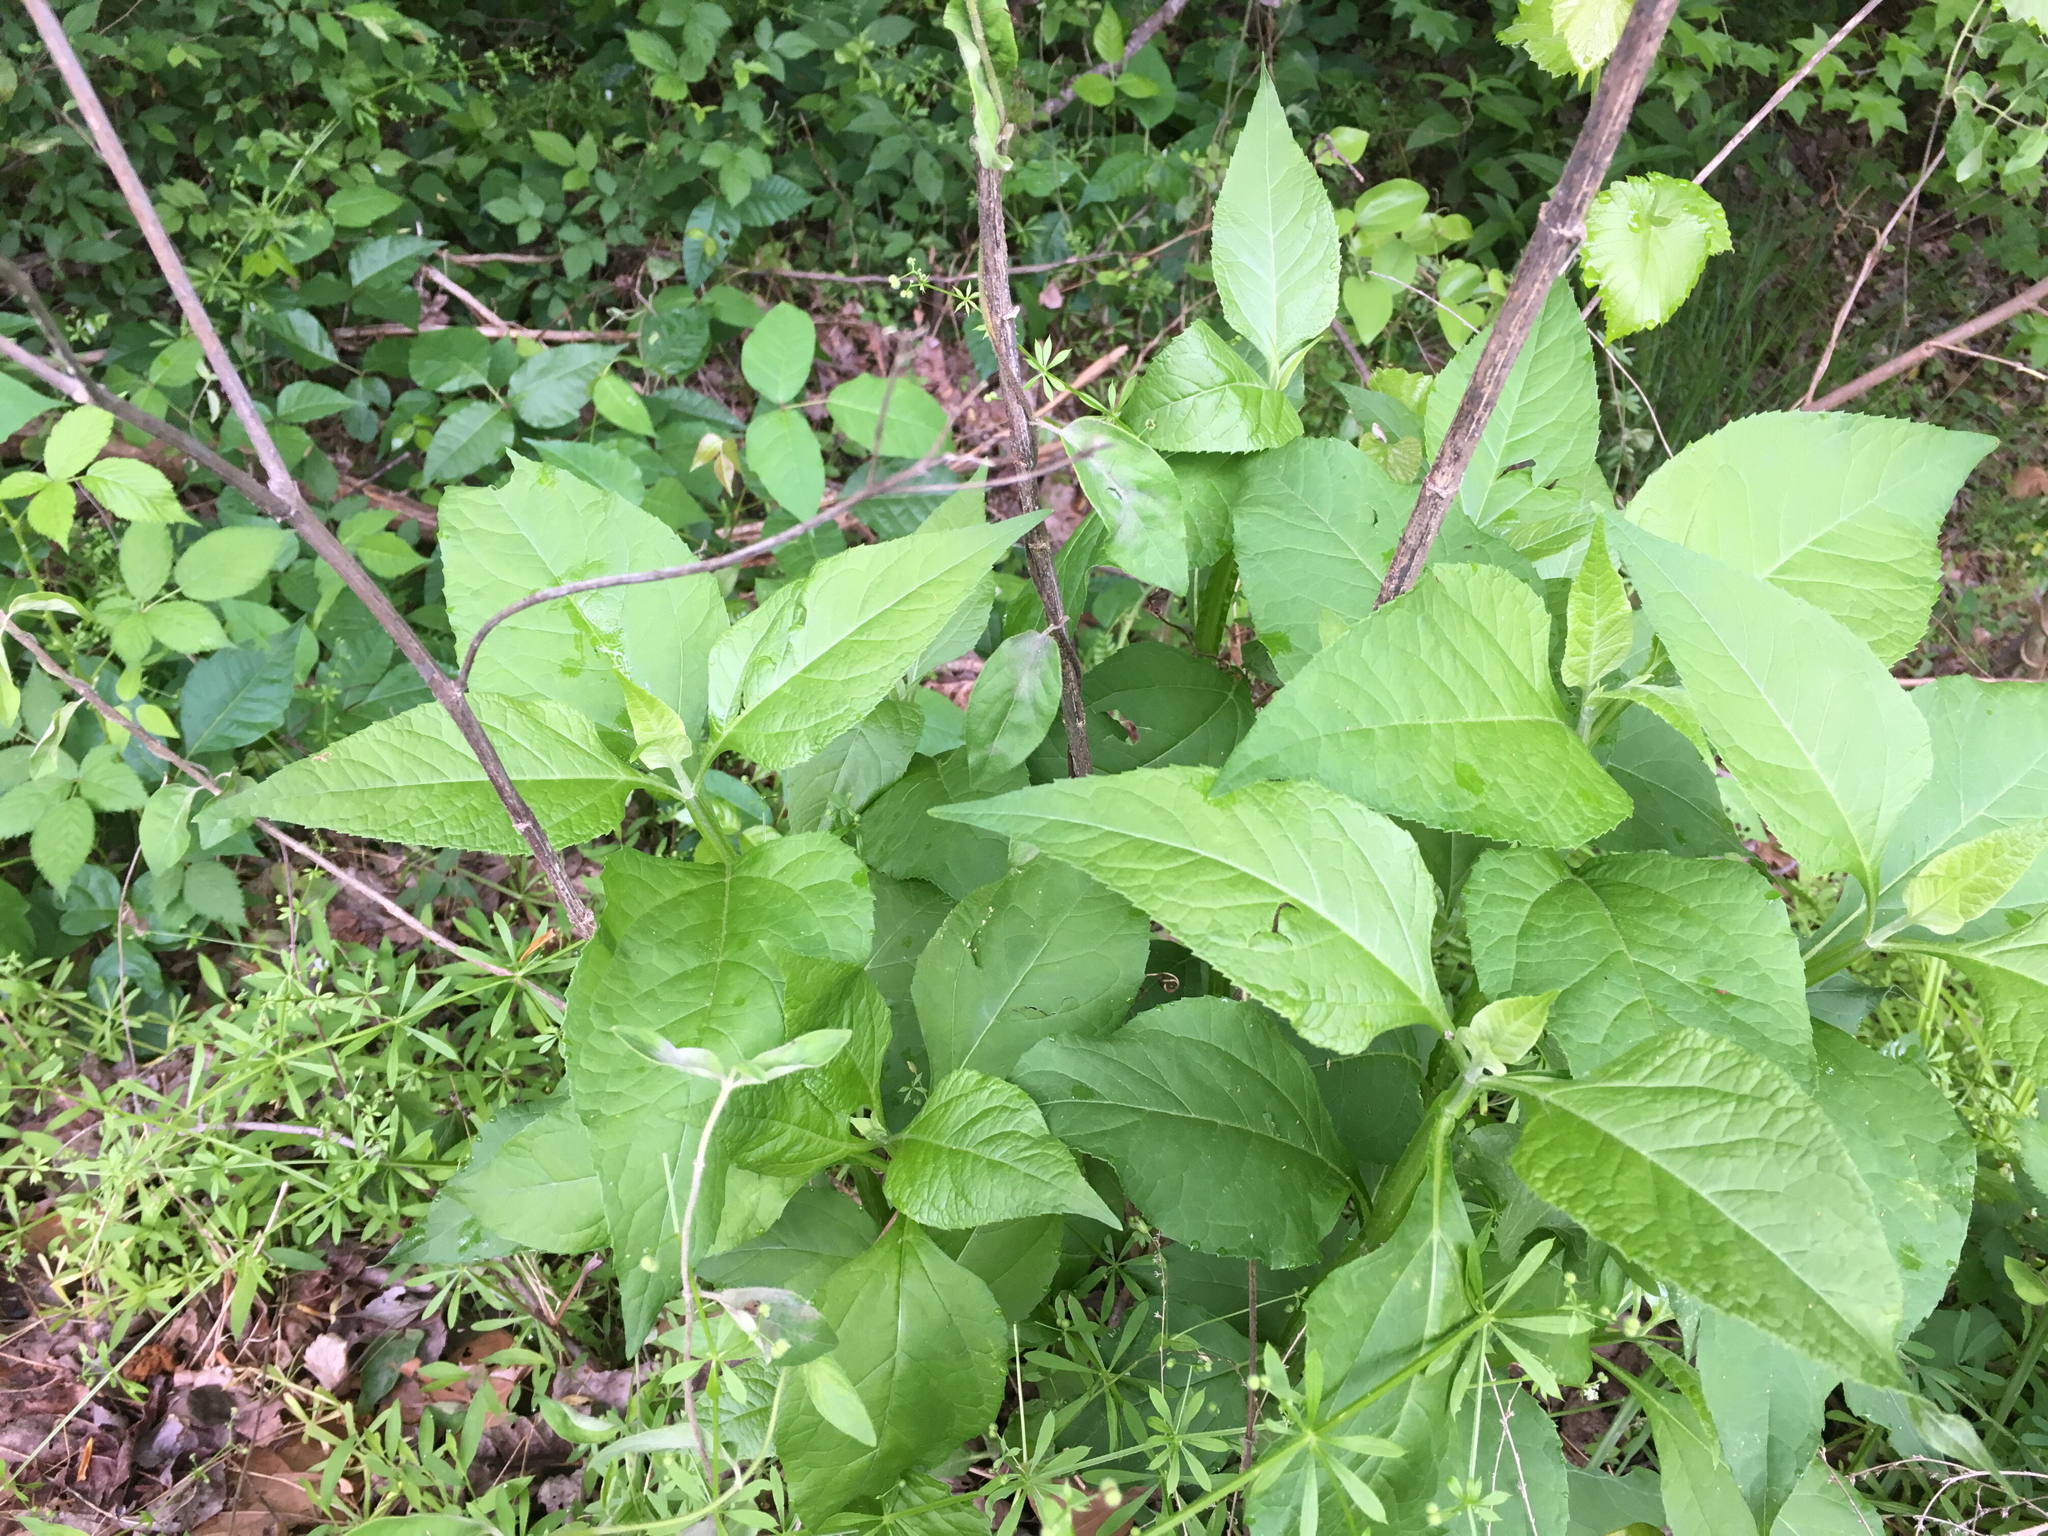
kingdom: Plantae
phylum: Tracheophyta
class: Magnoliopsida
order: Asterales
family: Asteraceae
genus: Verbesina
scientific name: Verbesina occidentalis
